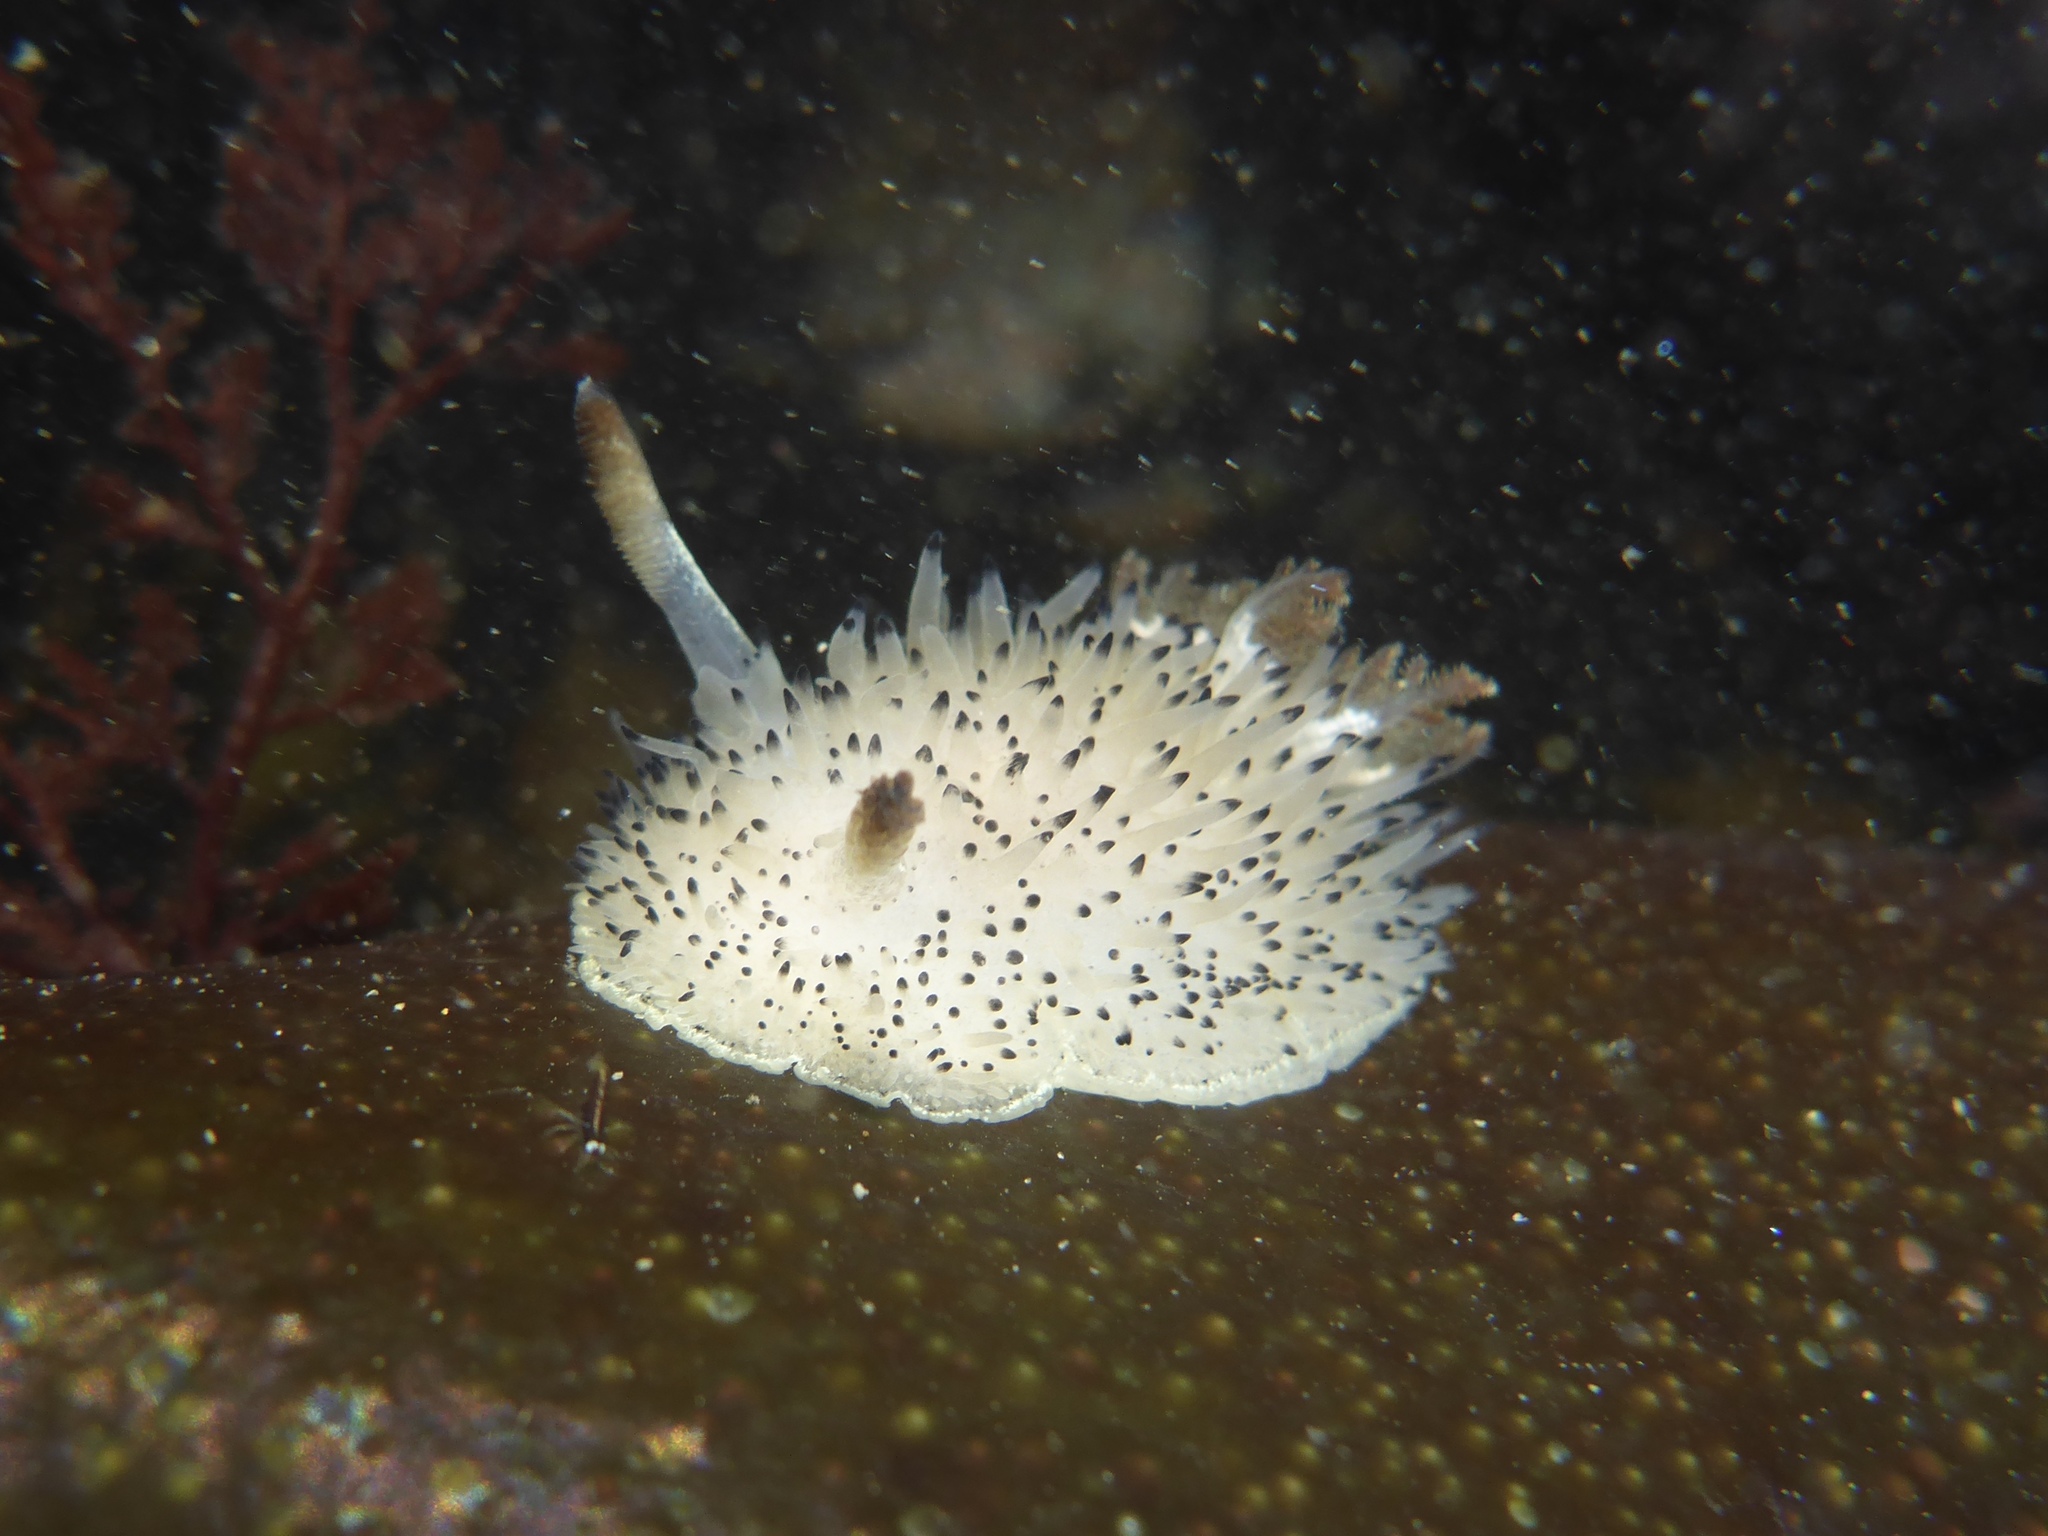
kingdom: Animalia
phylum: Mollusca
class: Gastropoda
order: Nudibranchia
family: Onchidorididae
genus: Acanthodoris
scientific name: Acanthodoris rhodoceras
